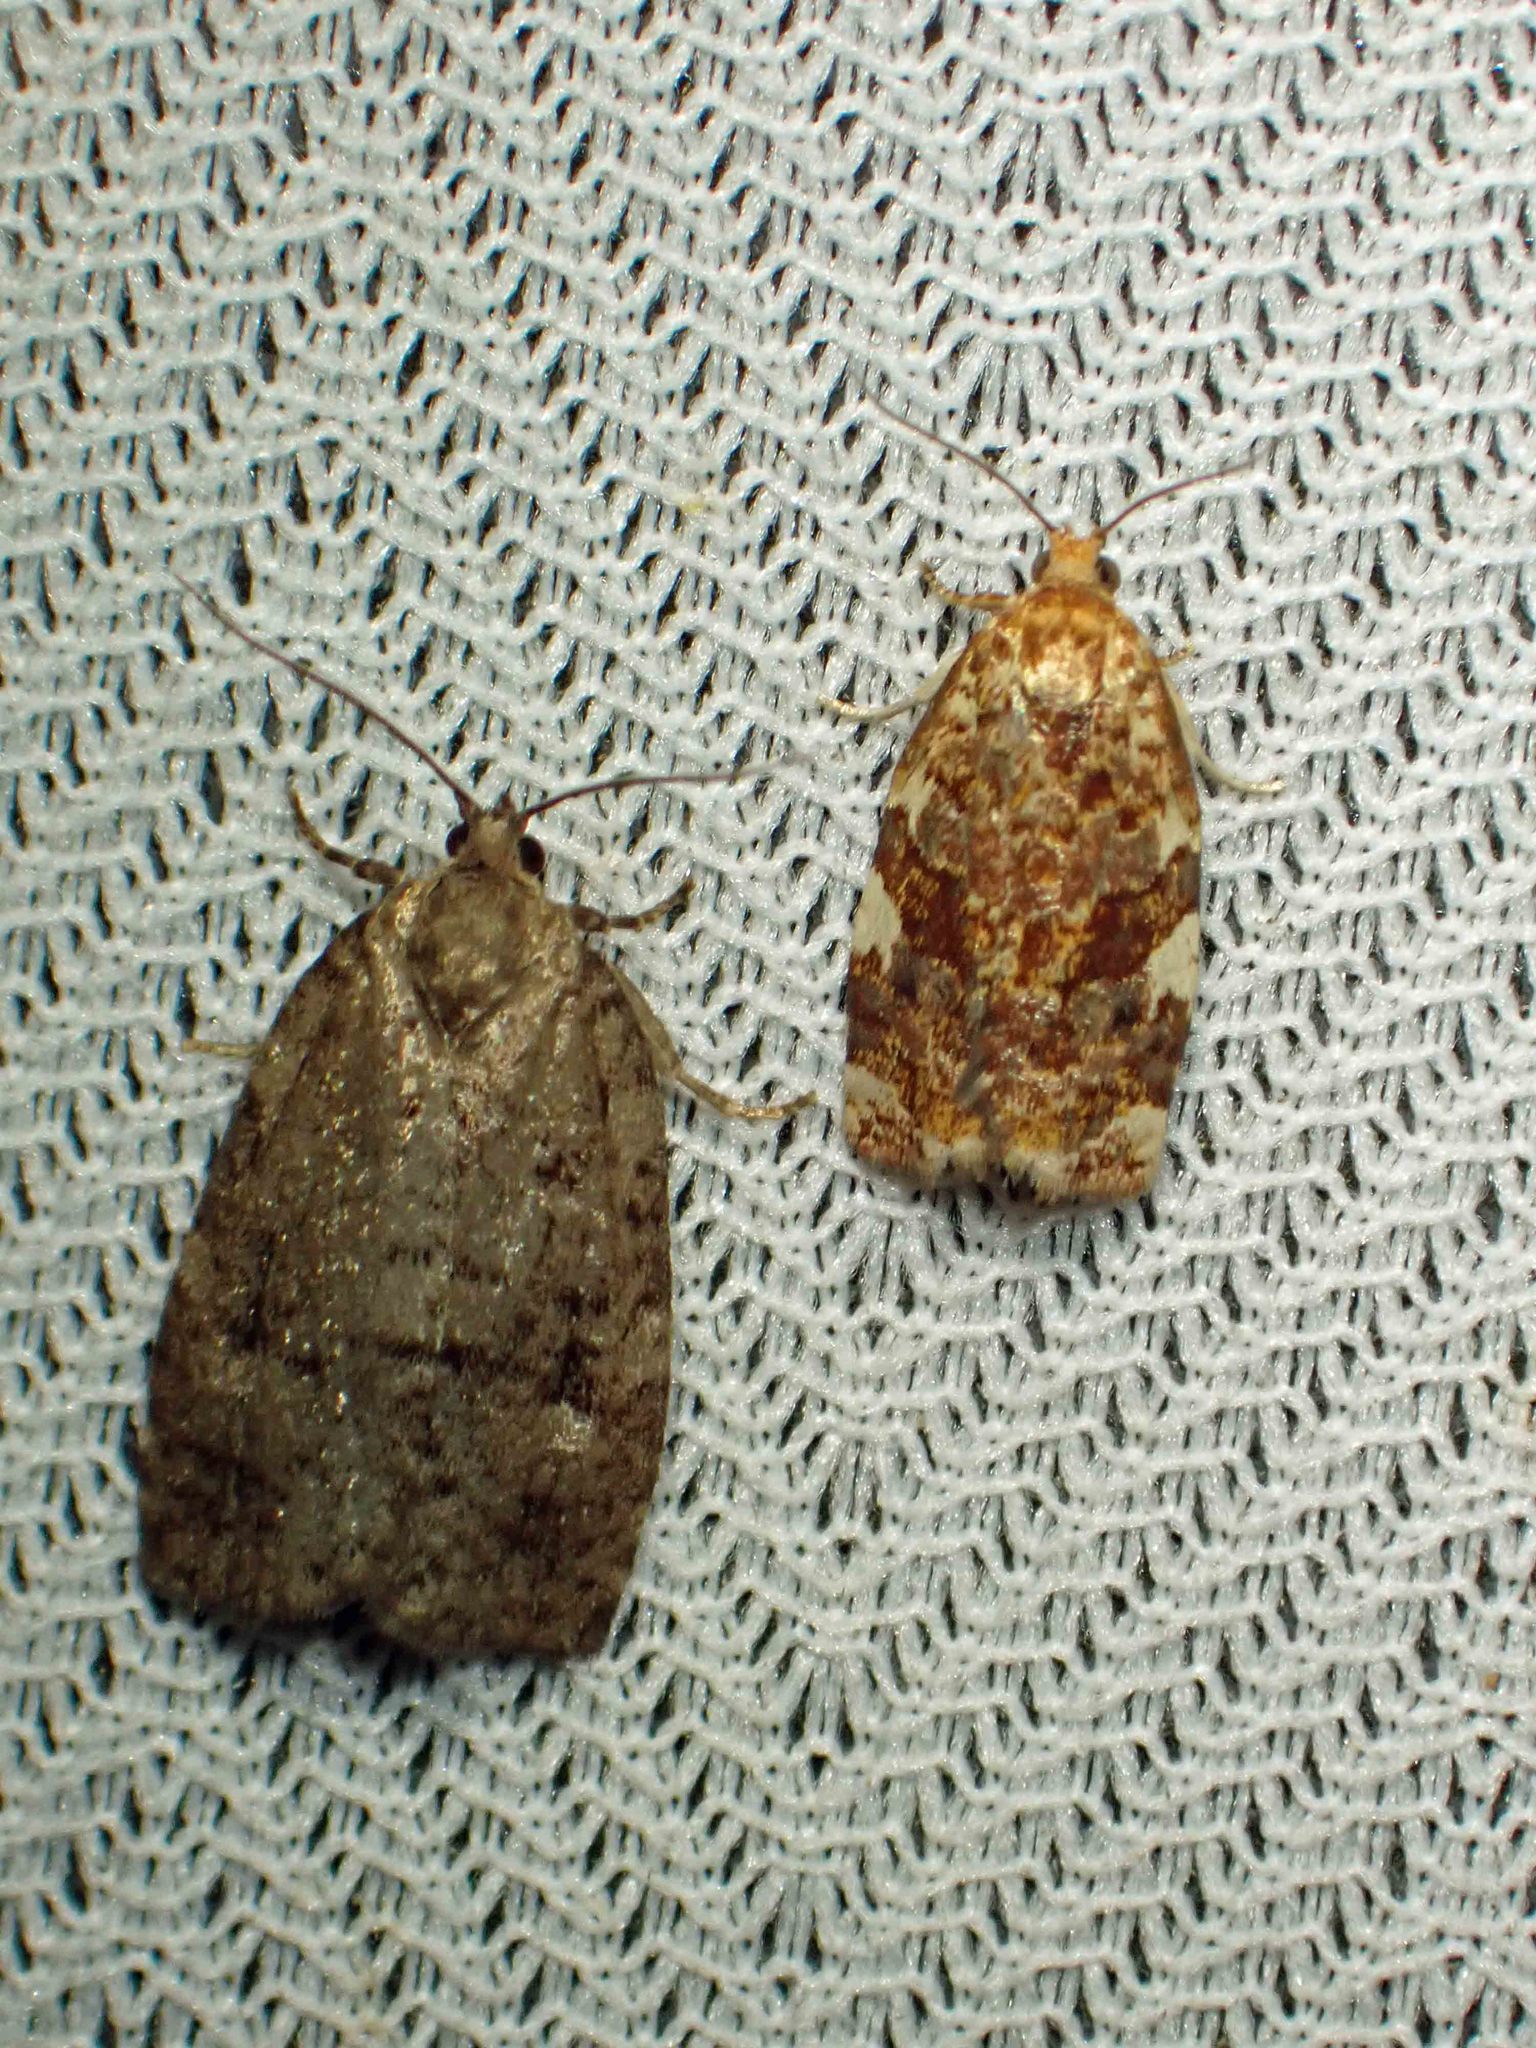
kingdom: Animalia
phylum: Arthropoda
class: Insecta
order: Lepidoptera
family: Tortricidae
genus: Choristoneura
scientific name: Choristoneura fumiferana
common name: Spruce budworm
